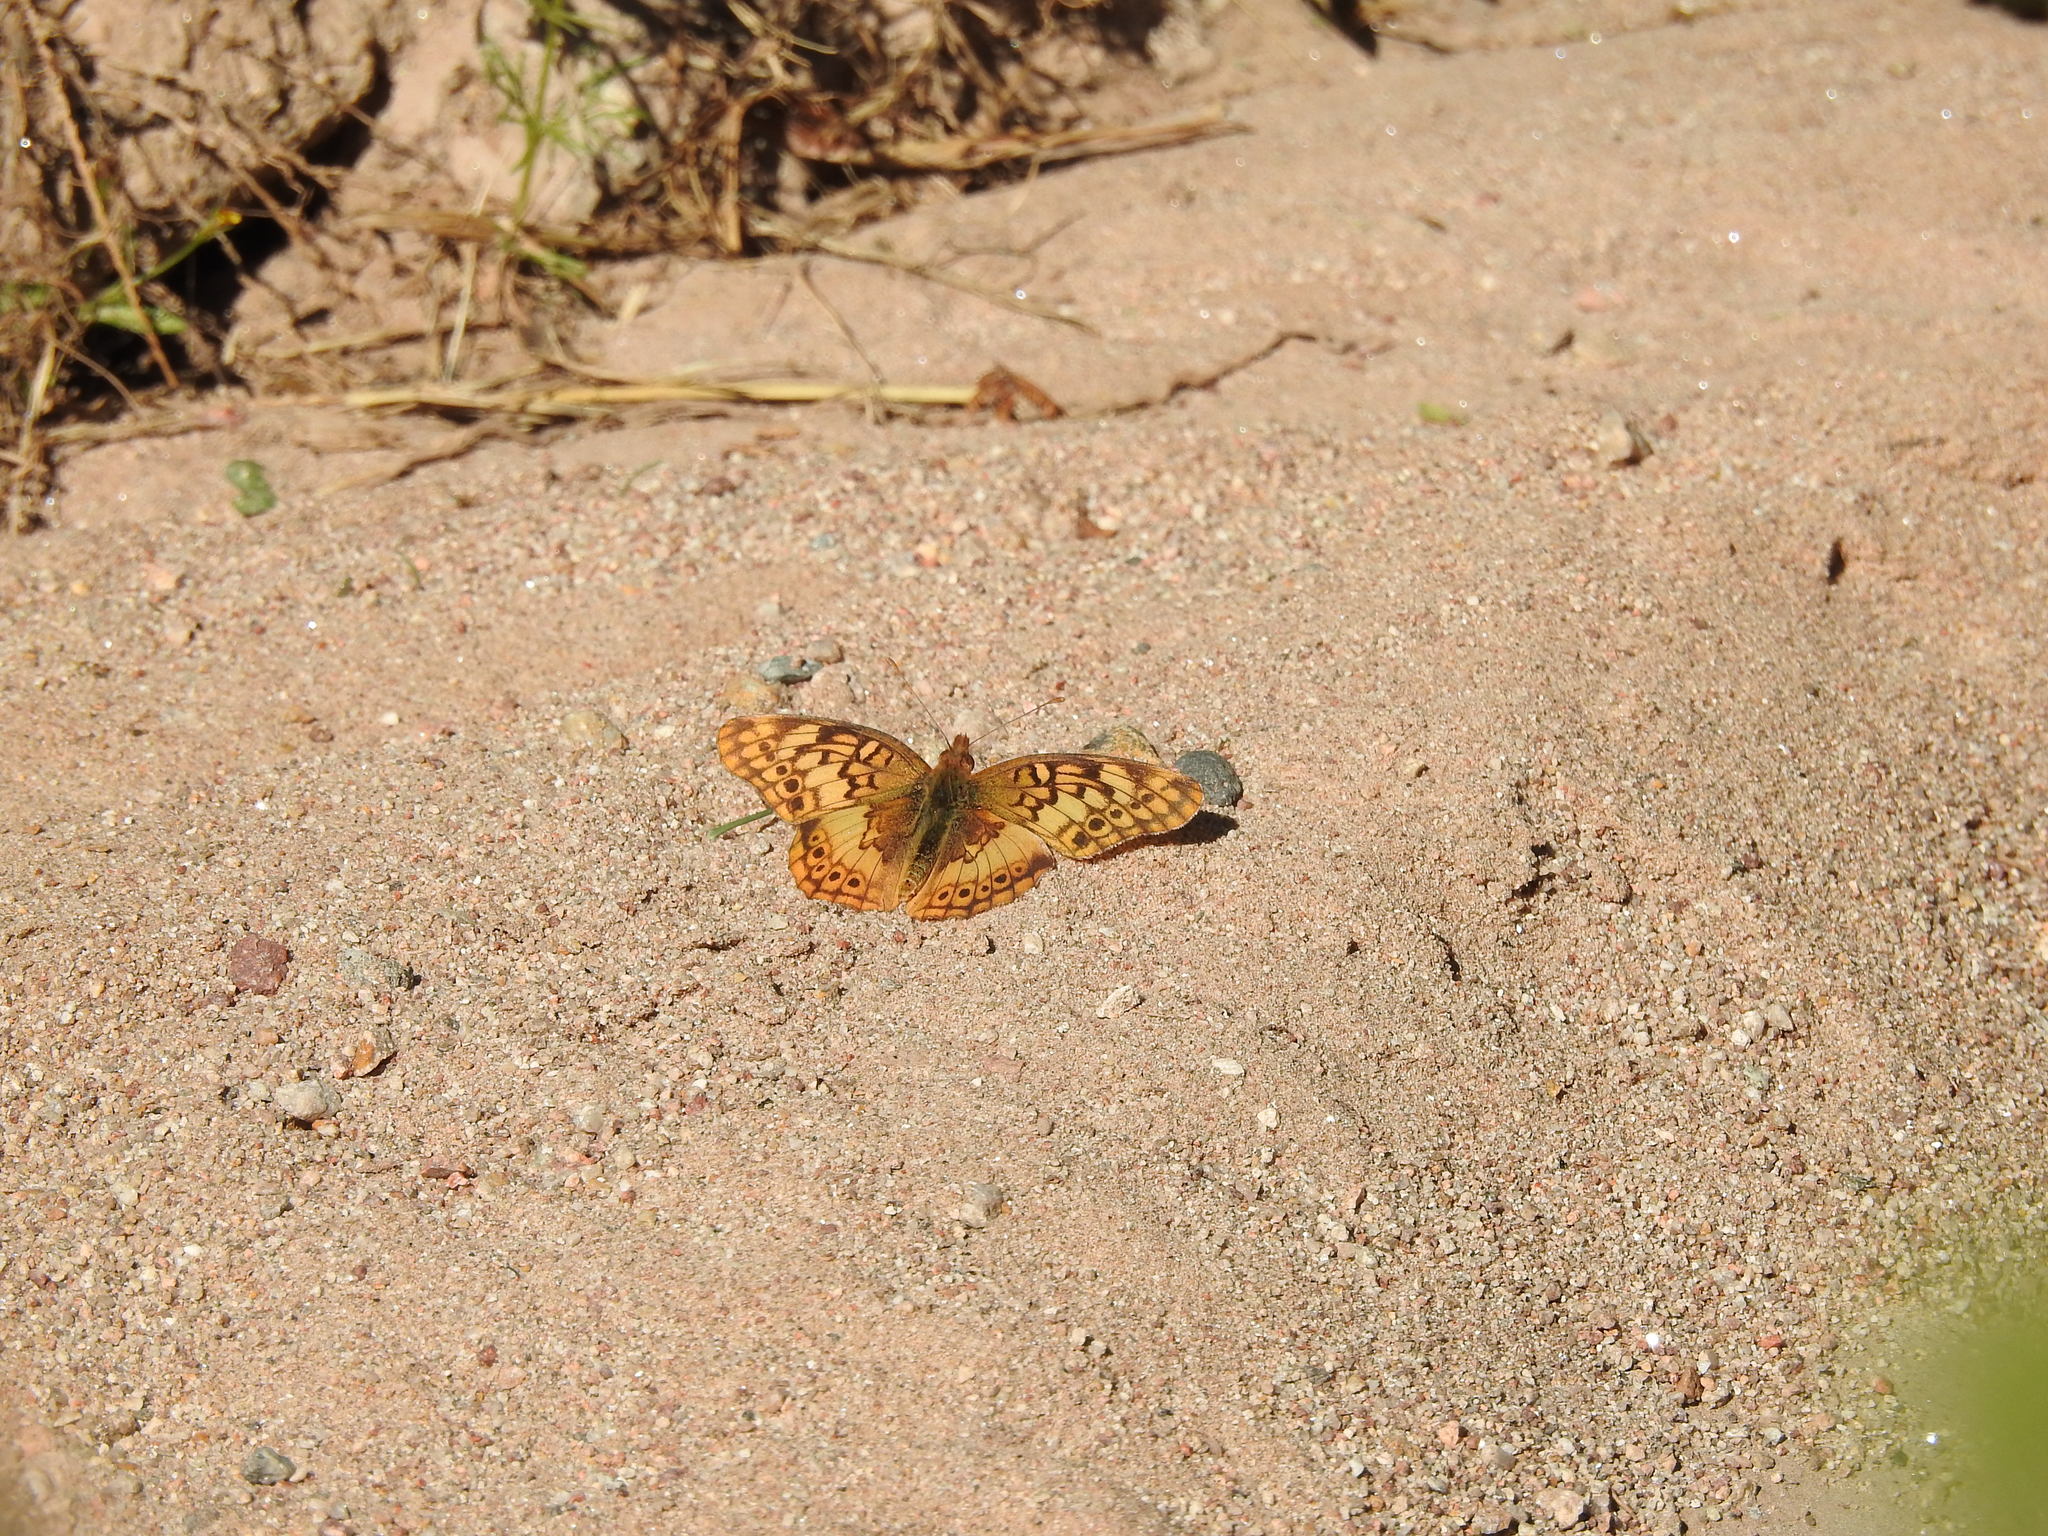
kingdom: Animalia
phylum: Arthropoda
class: Insecta
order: Lepidoptera
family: Nymphalidae
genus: Euptoieta
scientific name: Euptoieta hortensia
